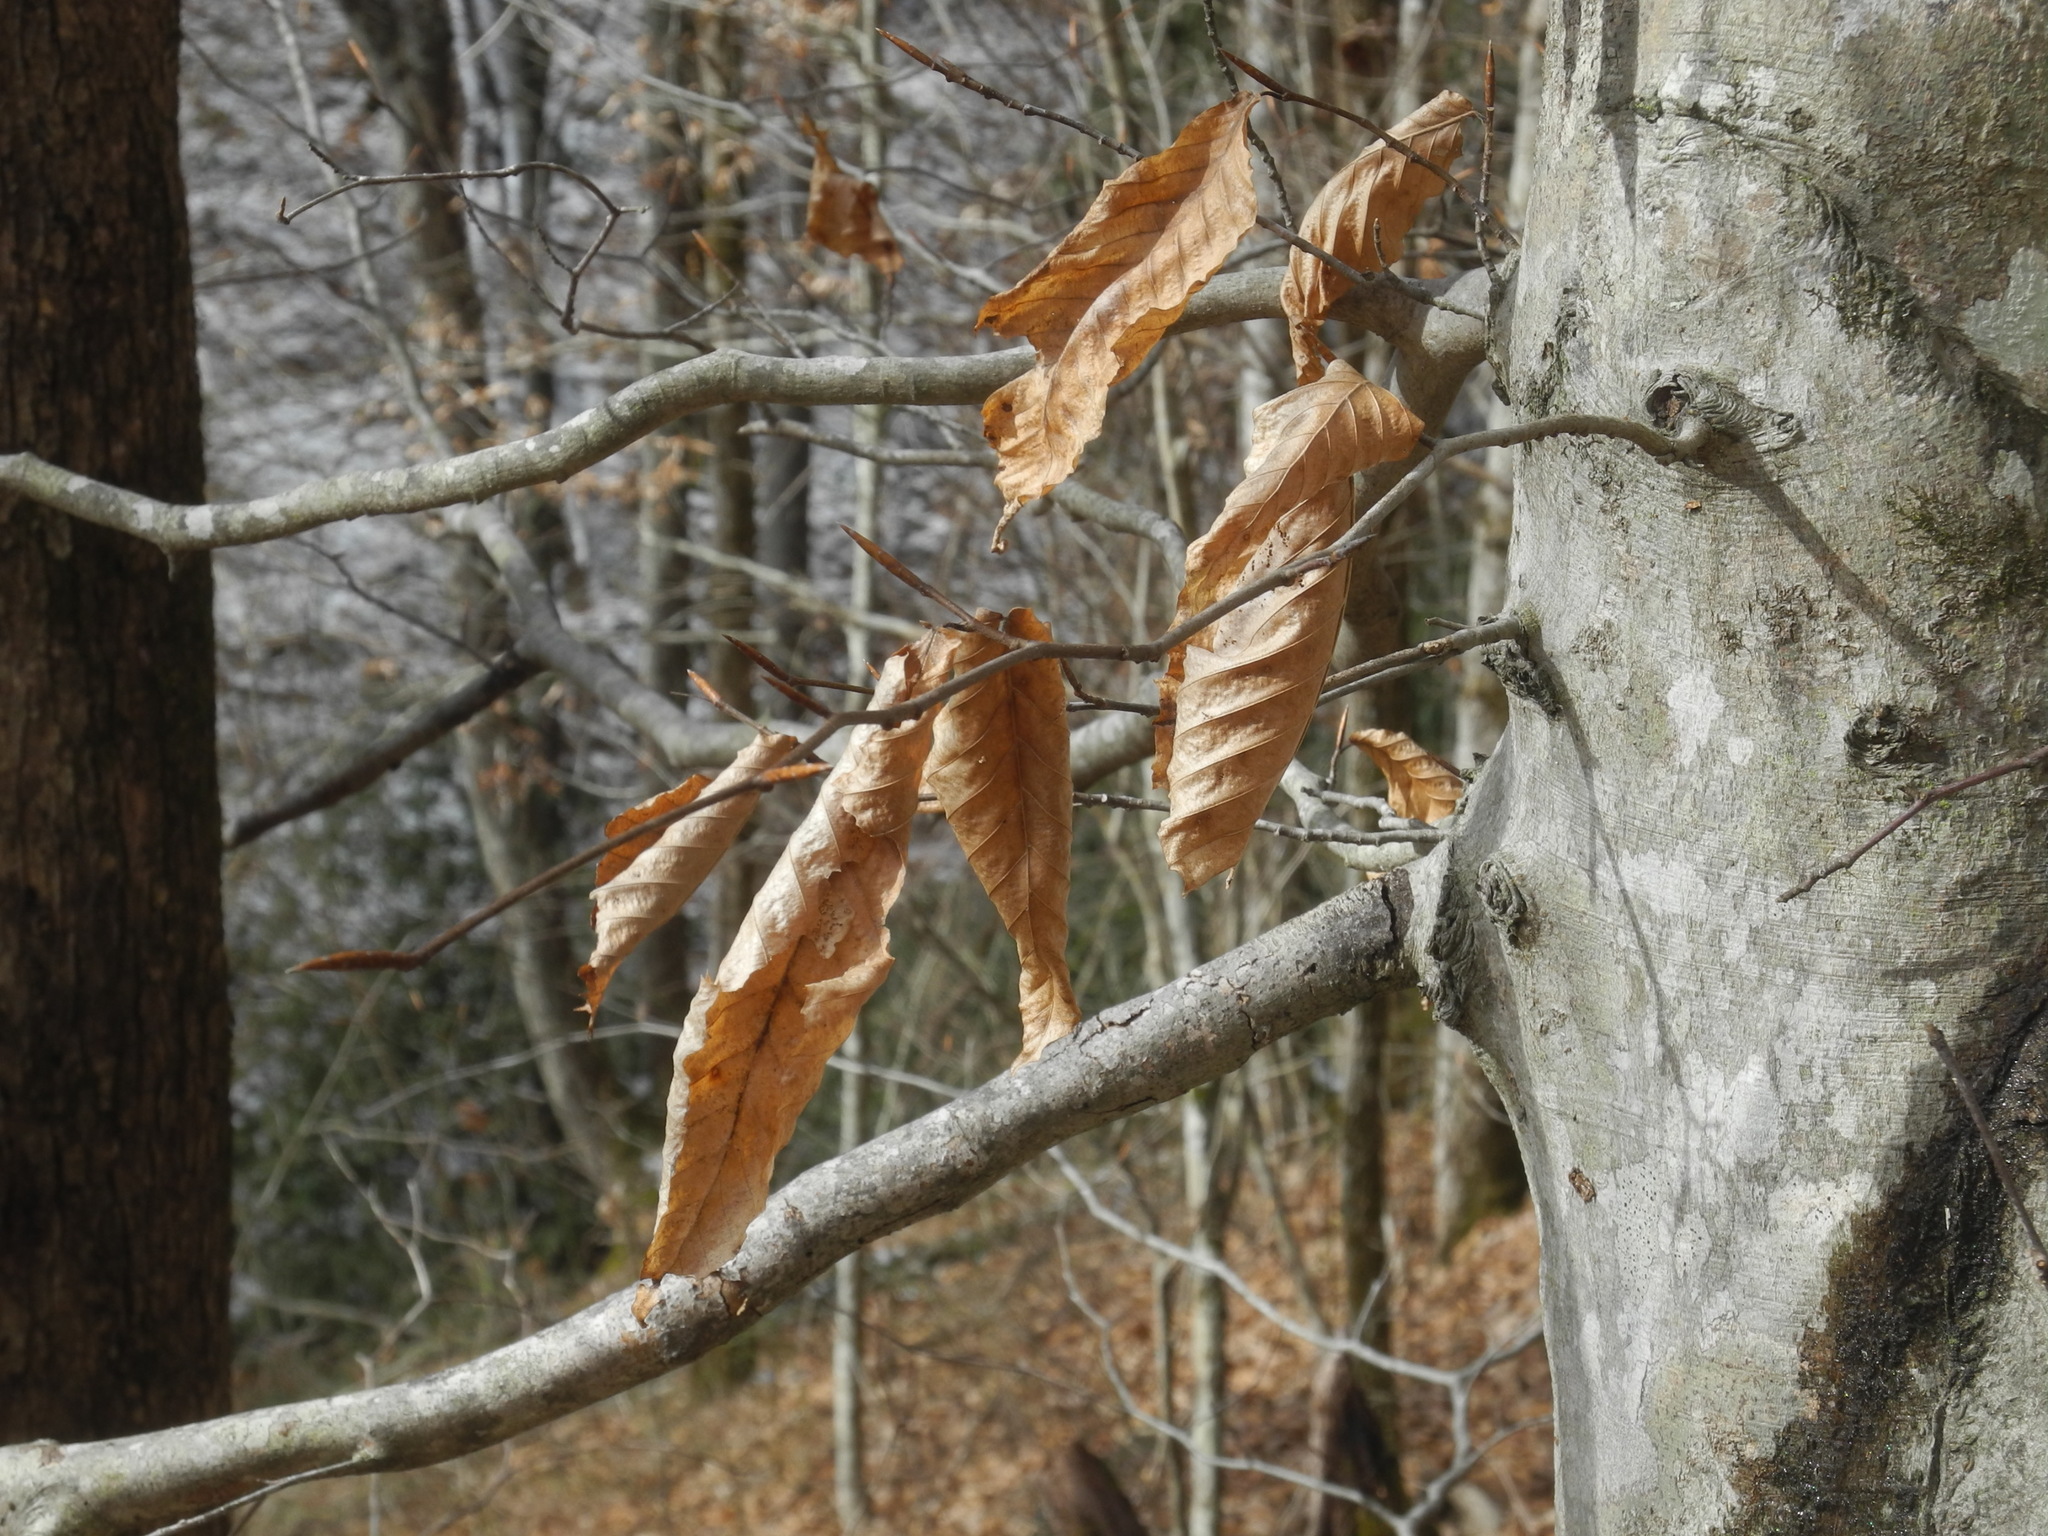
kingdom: Plantae
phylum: Tracheophyta
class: Magnoliopsida
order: Fagales
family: Fagaceae
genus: Fagus
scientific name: Fagus grandifolia
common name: American beech
